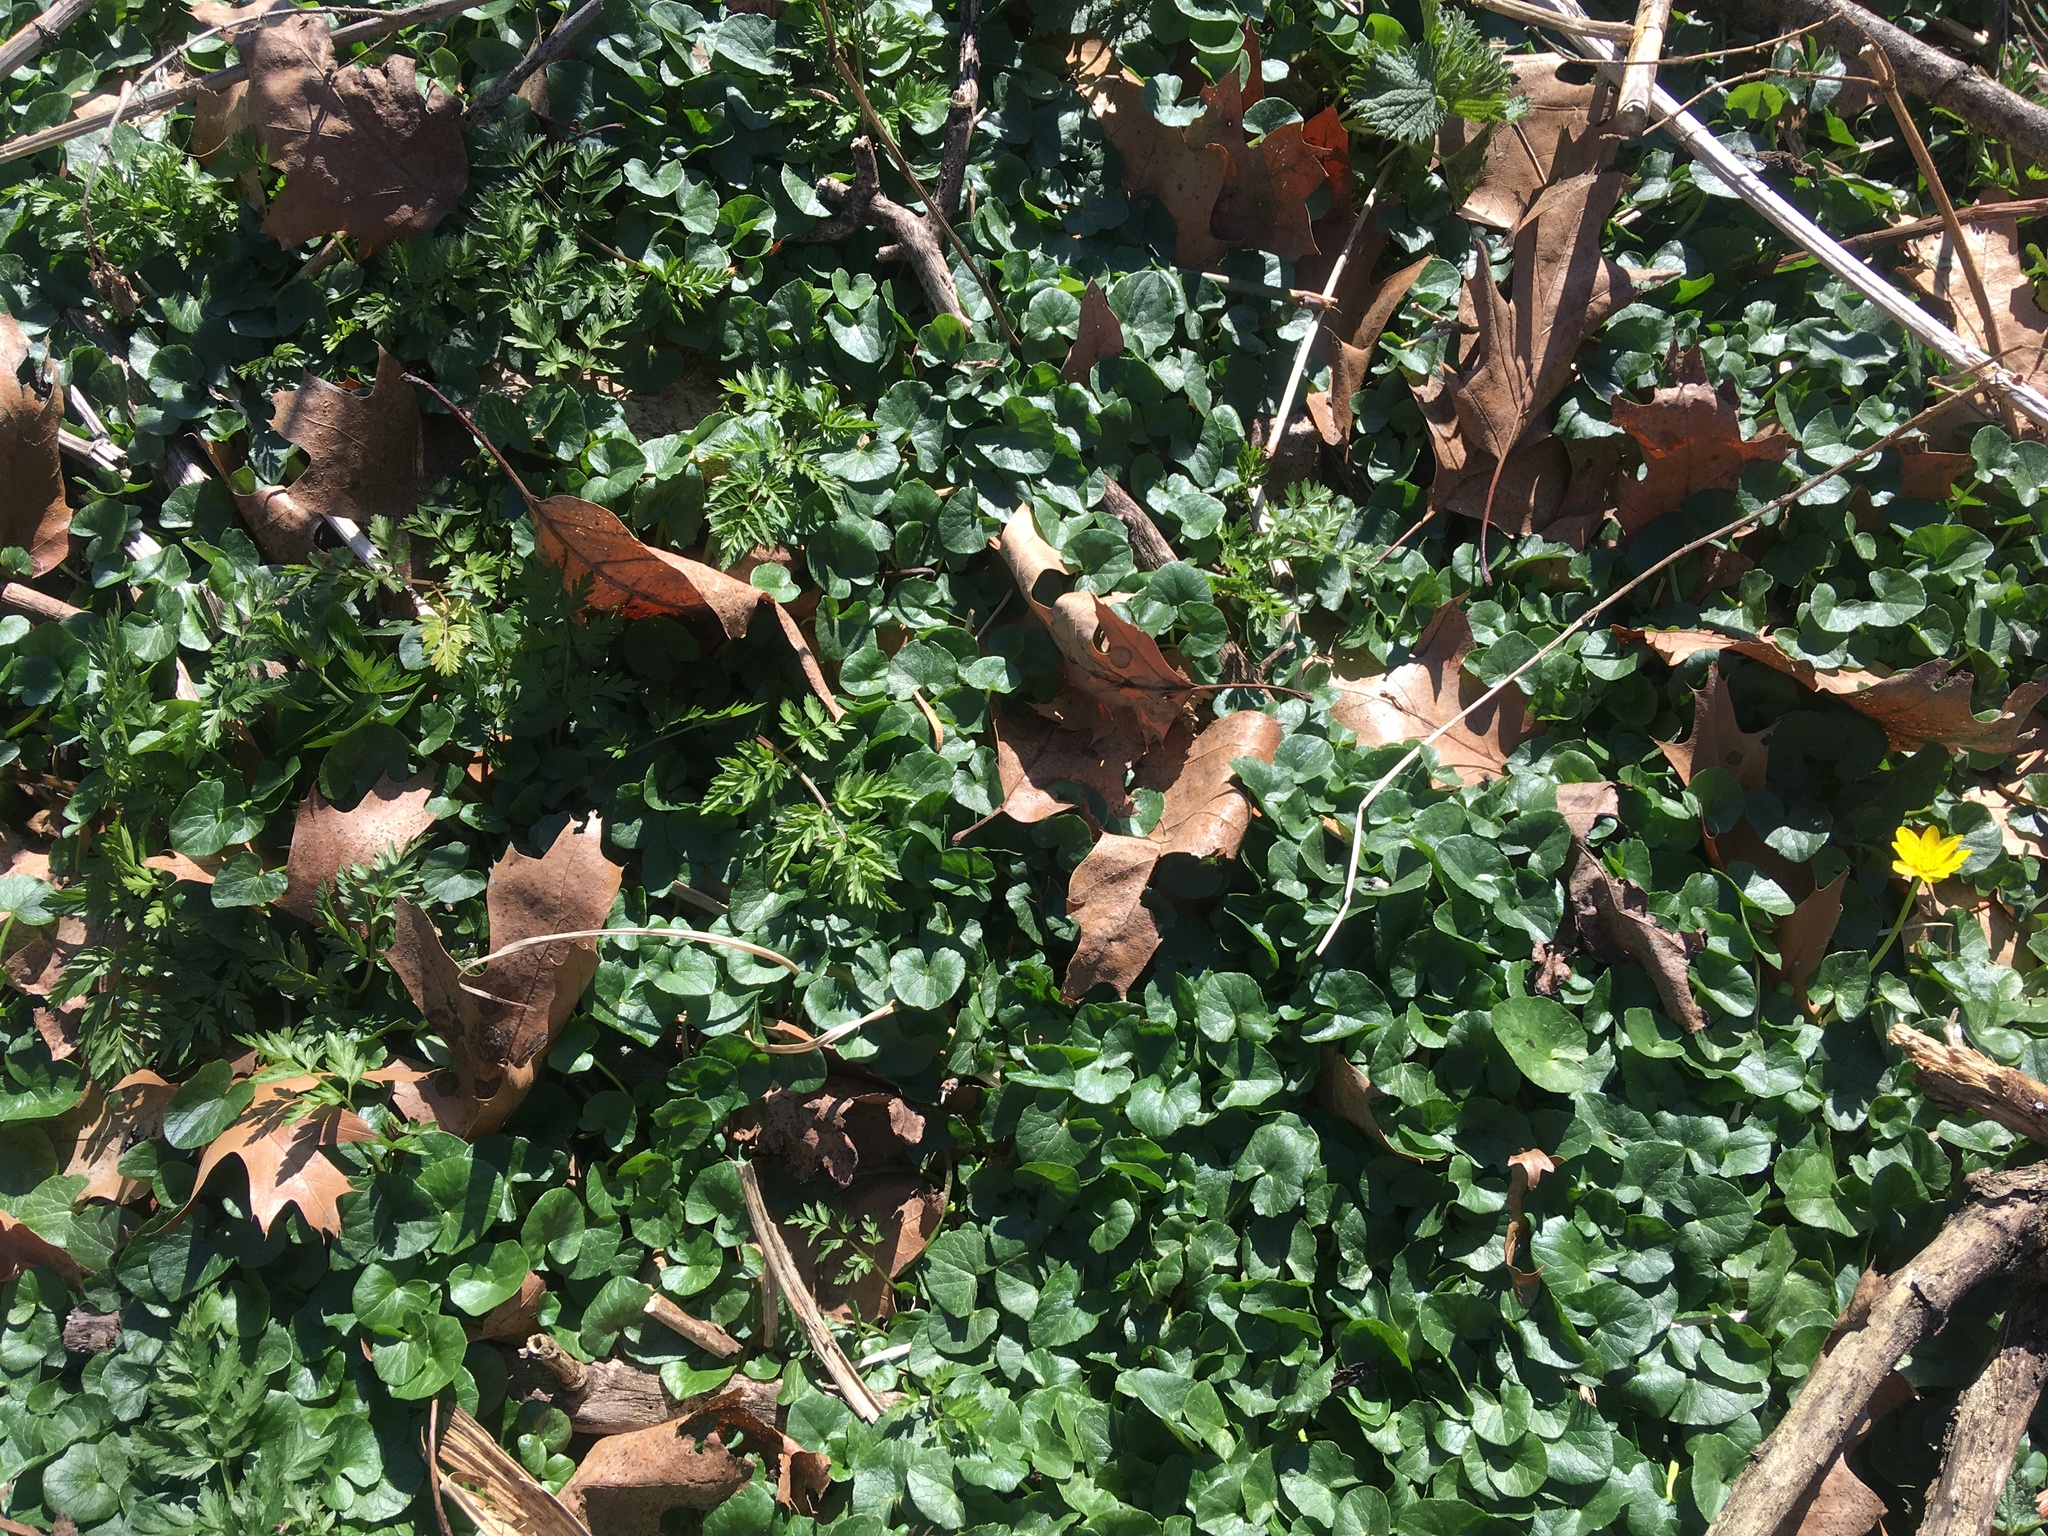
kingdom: Plantae
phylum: Tracheophyta
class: Magnoliopsida
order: Ranunculales
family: Ranunculaceae
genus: Ficaria
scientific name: Ficaria verna
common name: Lesser celandine
